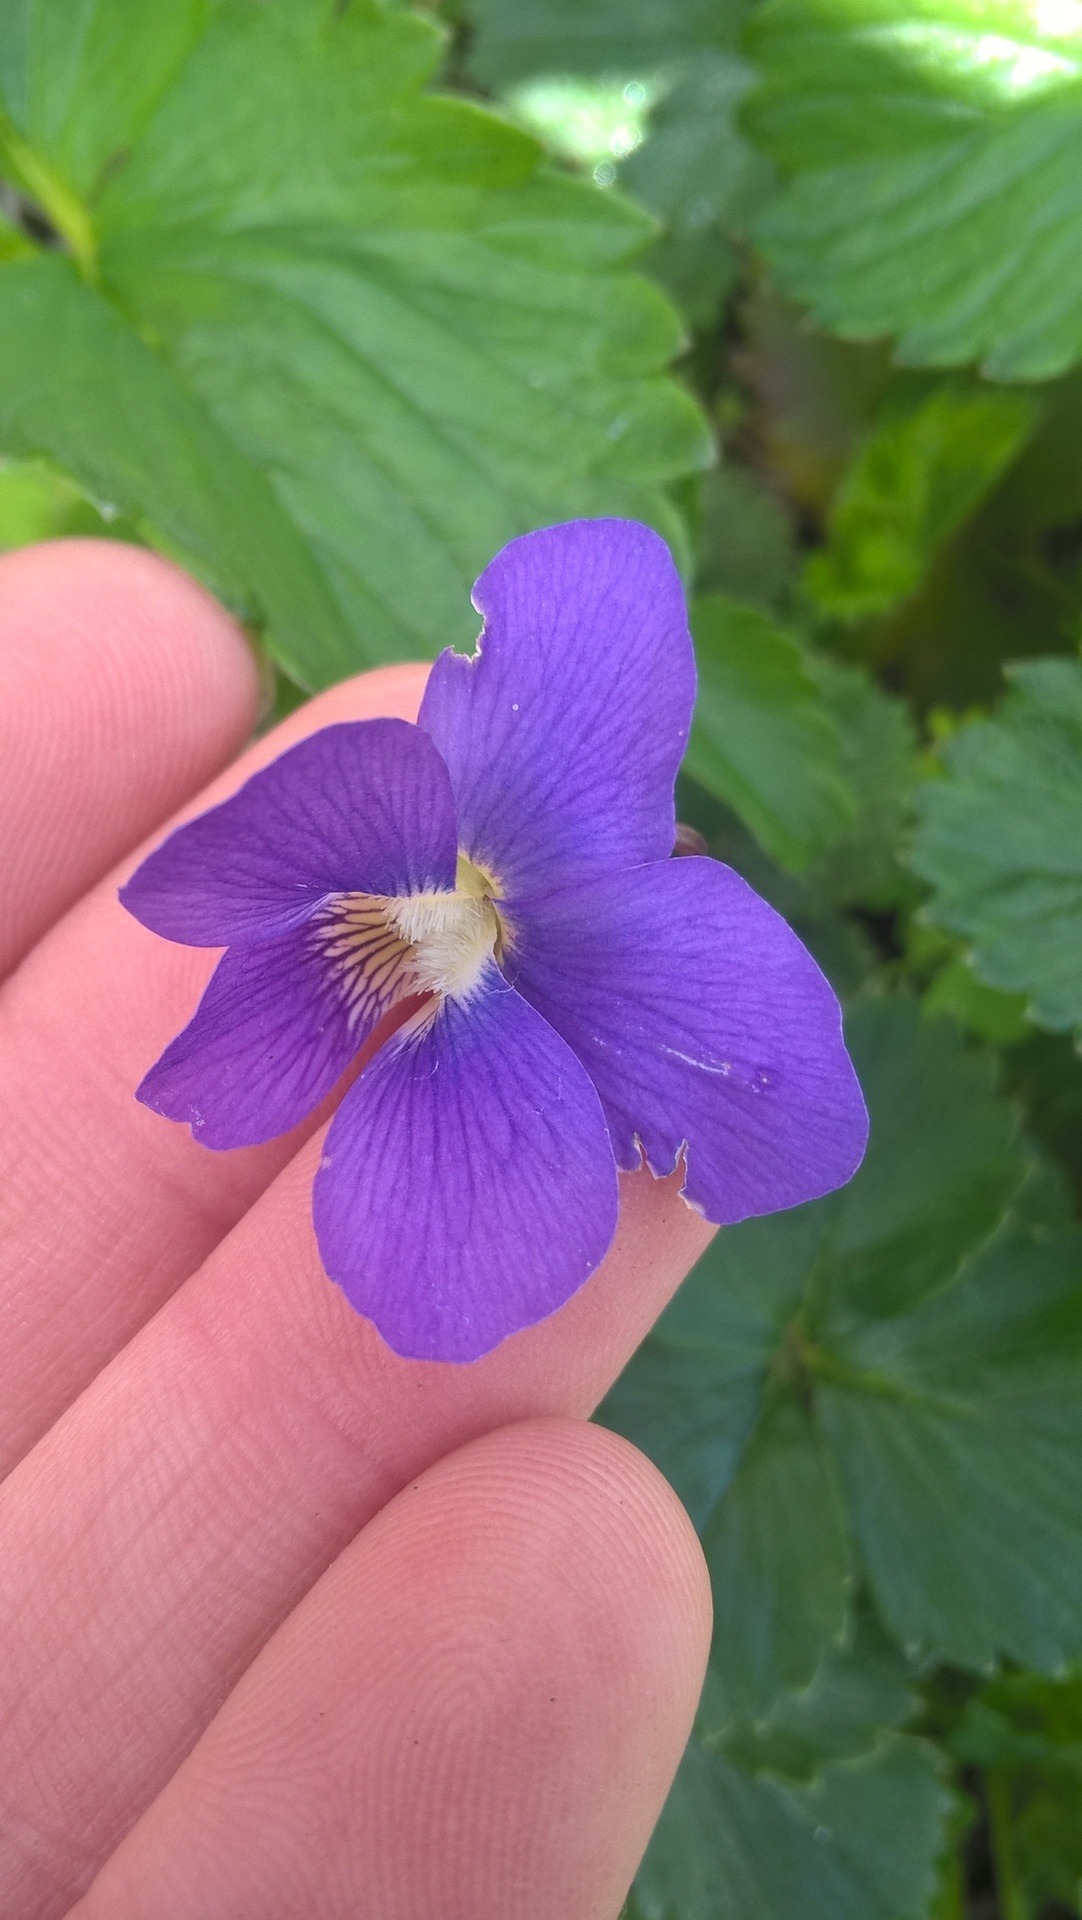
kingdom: Plantae
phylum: Tracheophyta
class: Magnoliopsida
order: Malpighiales
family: Violaceae
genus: Viola
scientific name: Viola sororia
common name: Dooryard violet
